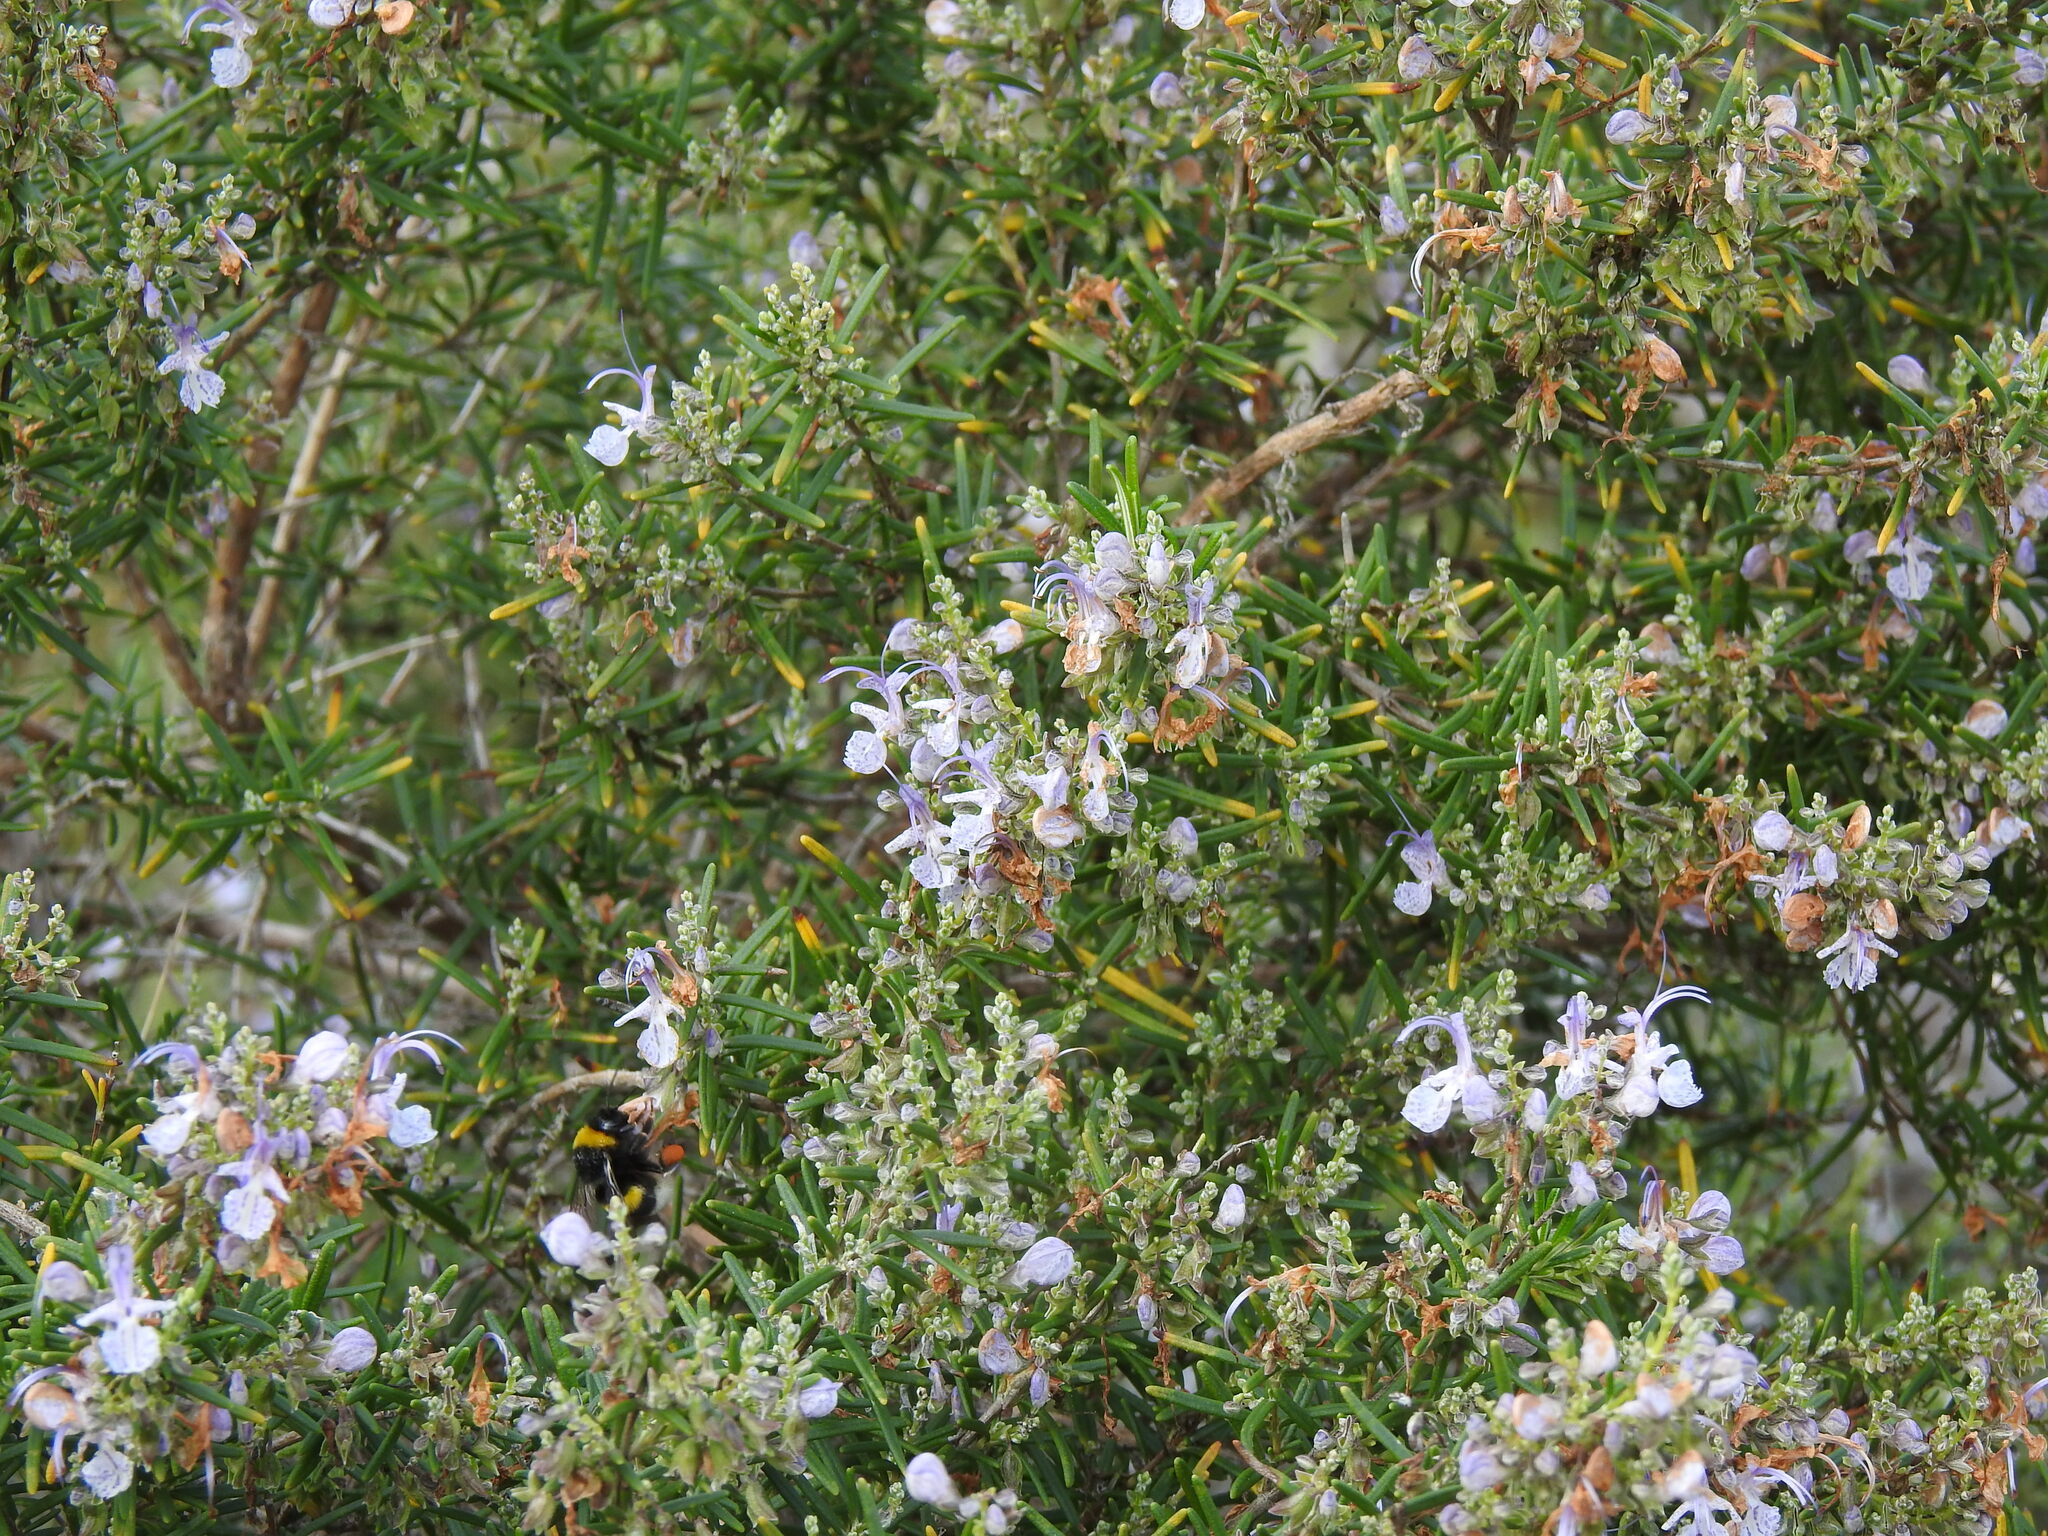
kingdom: Plantae
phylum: Tracheophyta
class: Magnoliopsida
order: Lamiales
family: Lamiaceae
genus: Salvia
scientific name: Salvia rosmarinus
